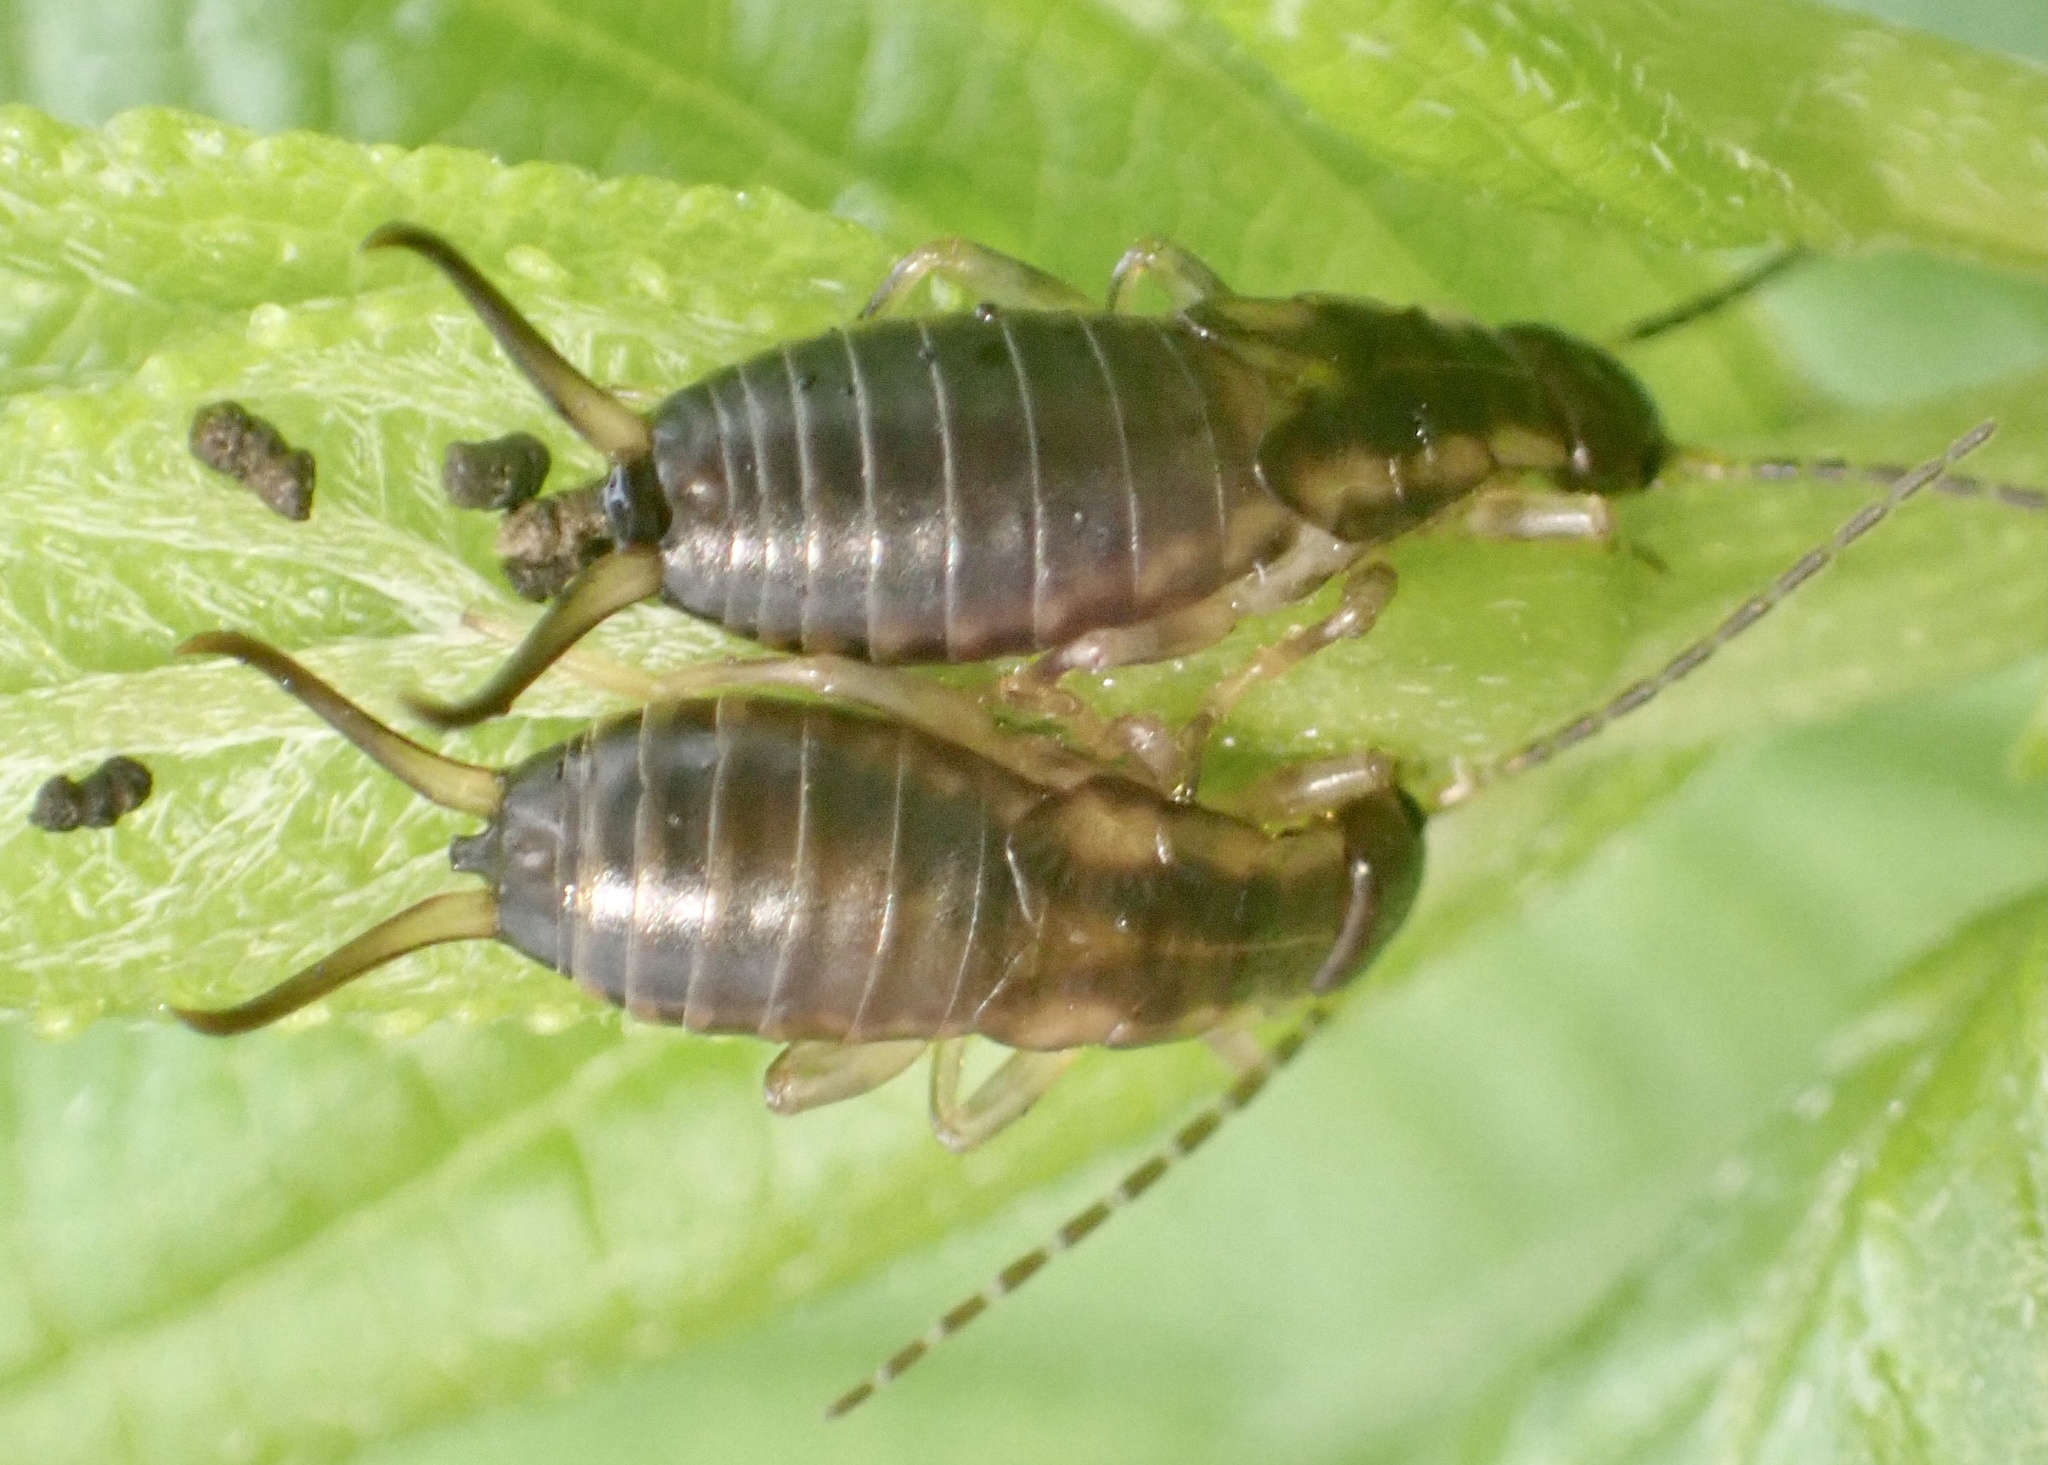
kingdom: Animalia
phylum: Arthropoda
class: Insecta
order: Dermaptera
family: Forficulidae
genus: Forficula
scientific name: Forficula
